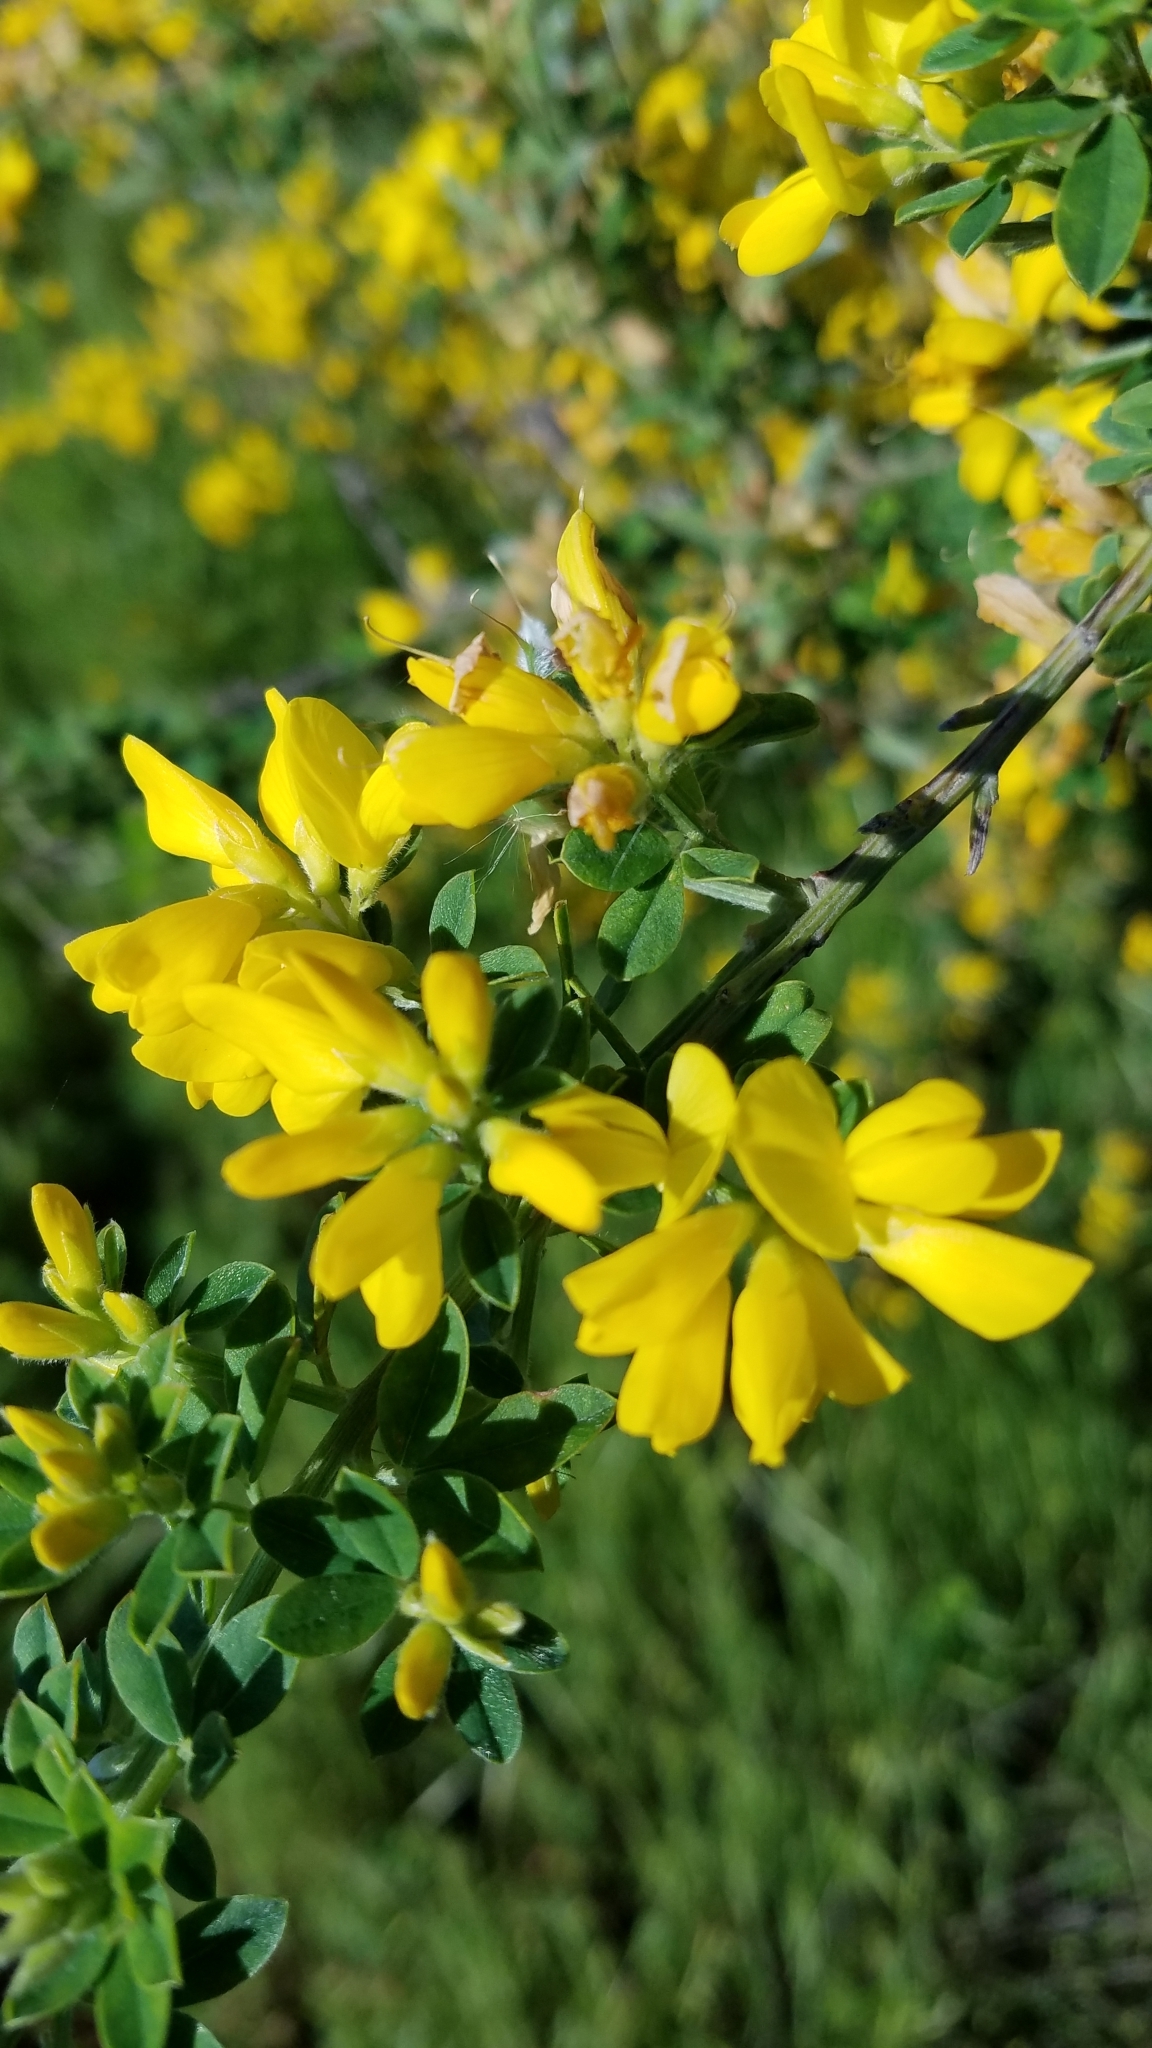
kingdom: Plantae
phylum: Tracheophyta
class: Magnoliopsida
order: Fabales
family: Fabaceae
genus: Genista
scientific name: Genista monspessulana
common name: Montpellier broom
